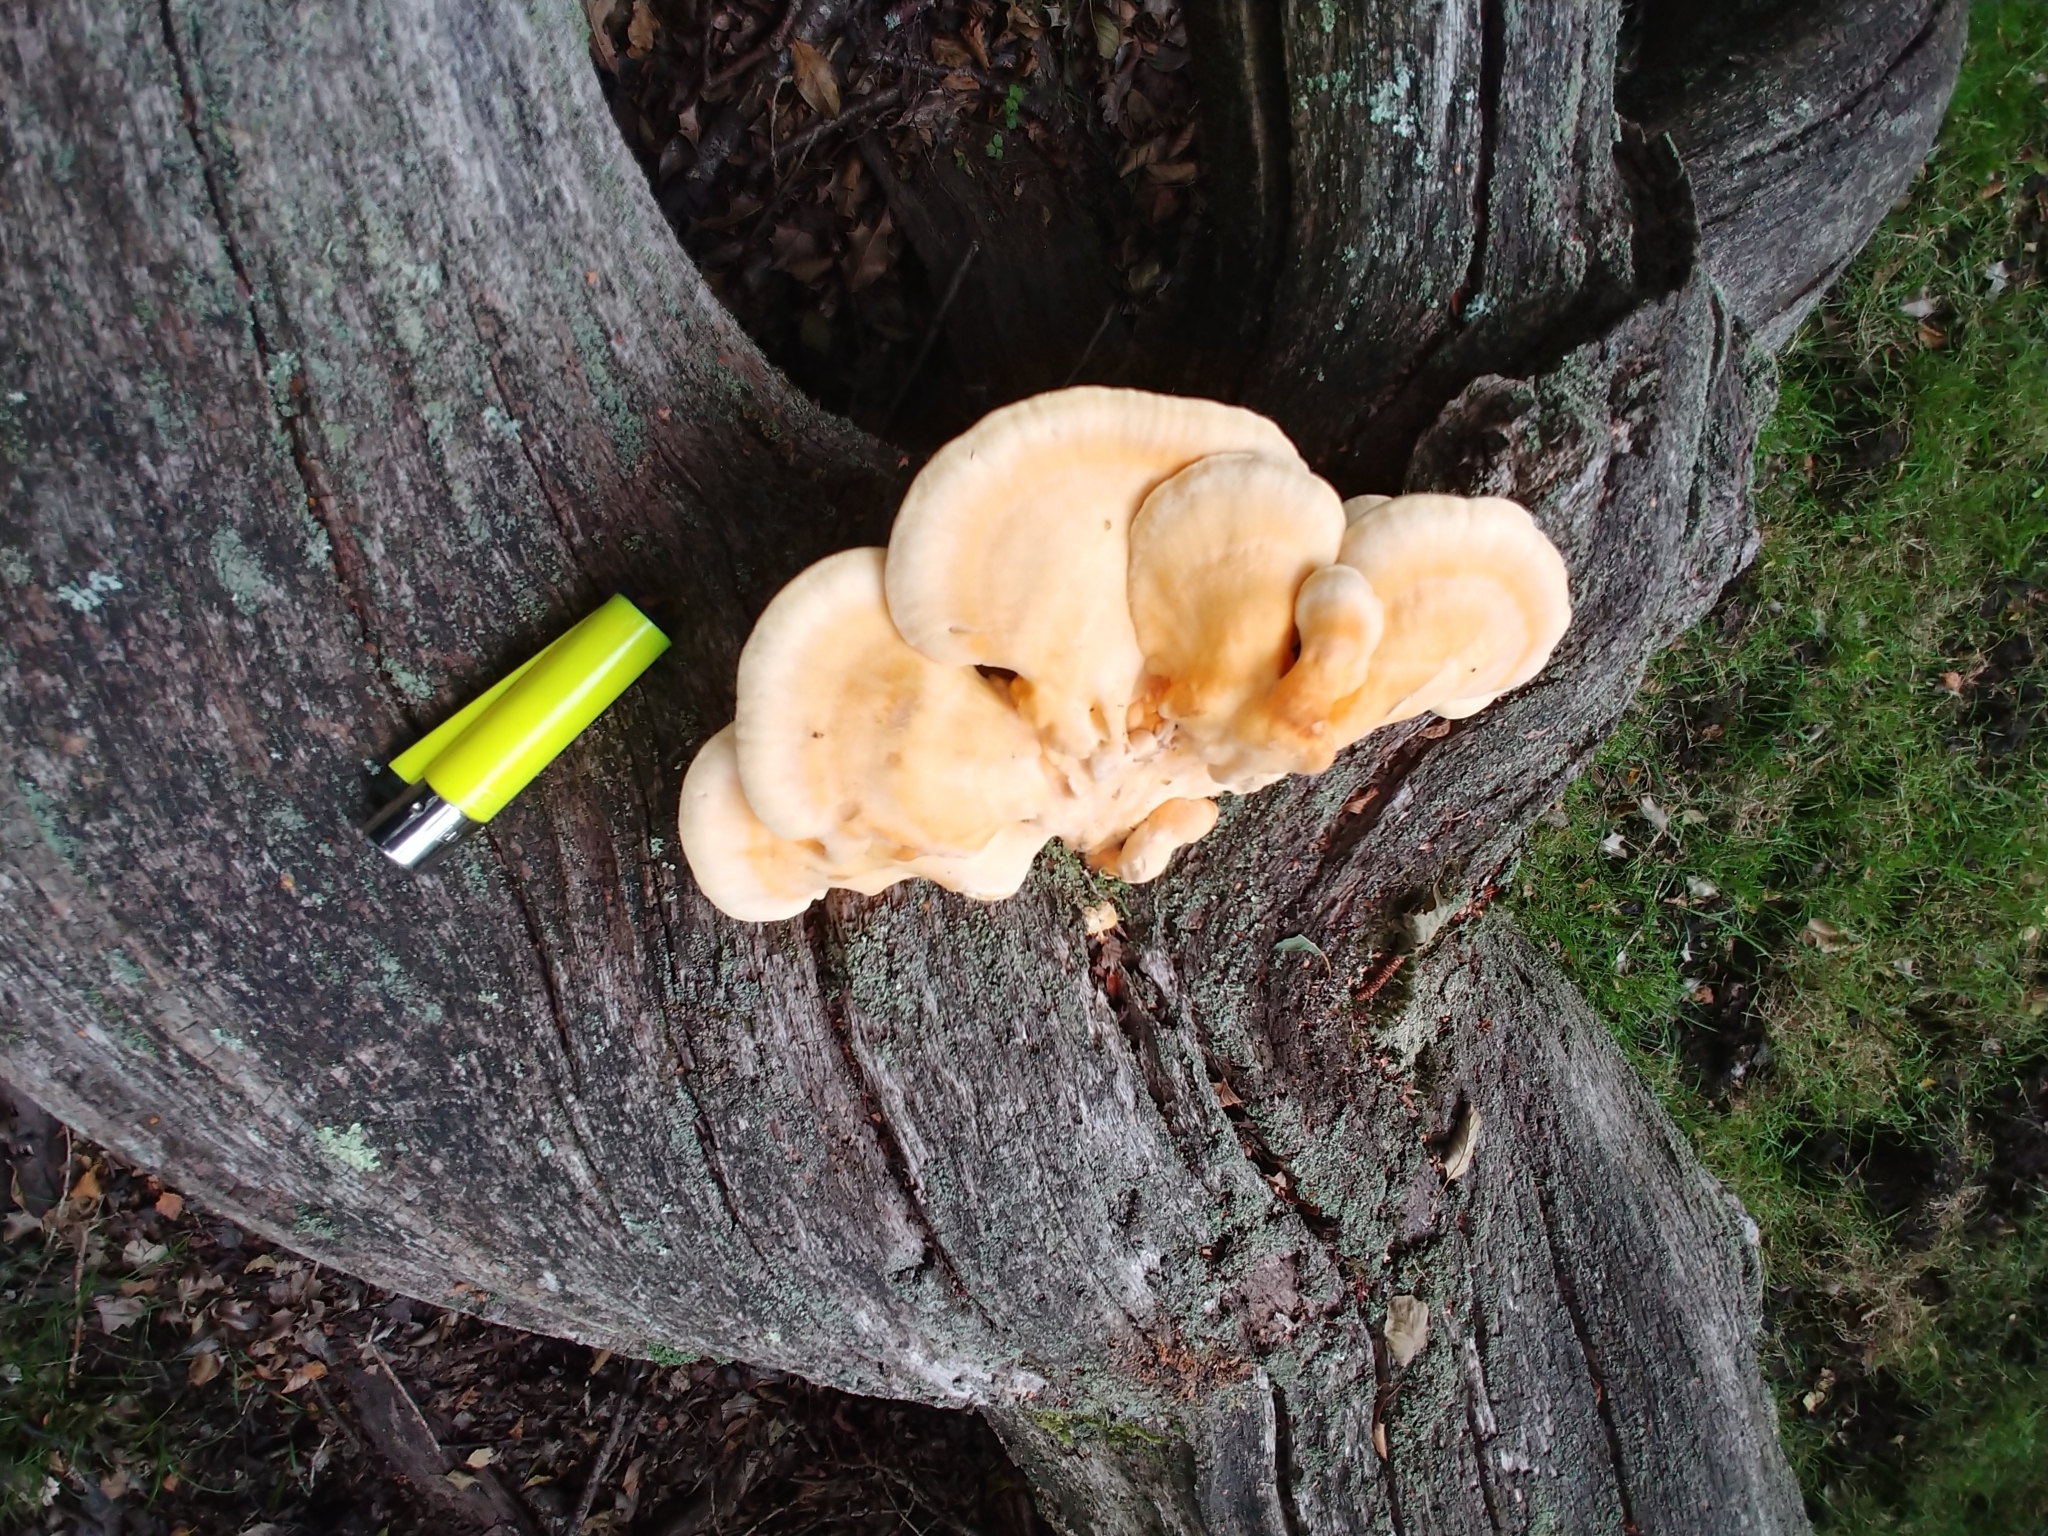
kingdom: Fungi
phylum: Basidiomycota
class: Agaricomycetes
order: Polyporales
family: Laetiporaceae
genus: Laetiporus
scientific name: Laetiporus sulphureus
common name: Chicken of the woods
